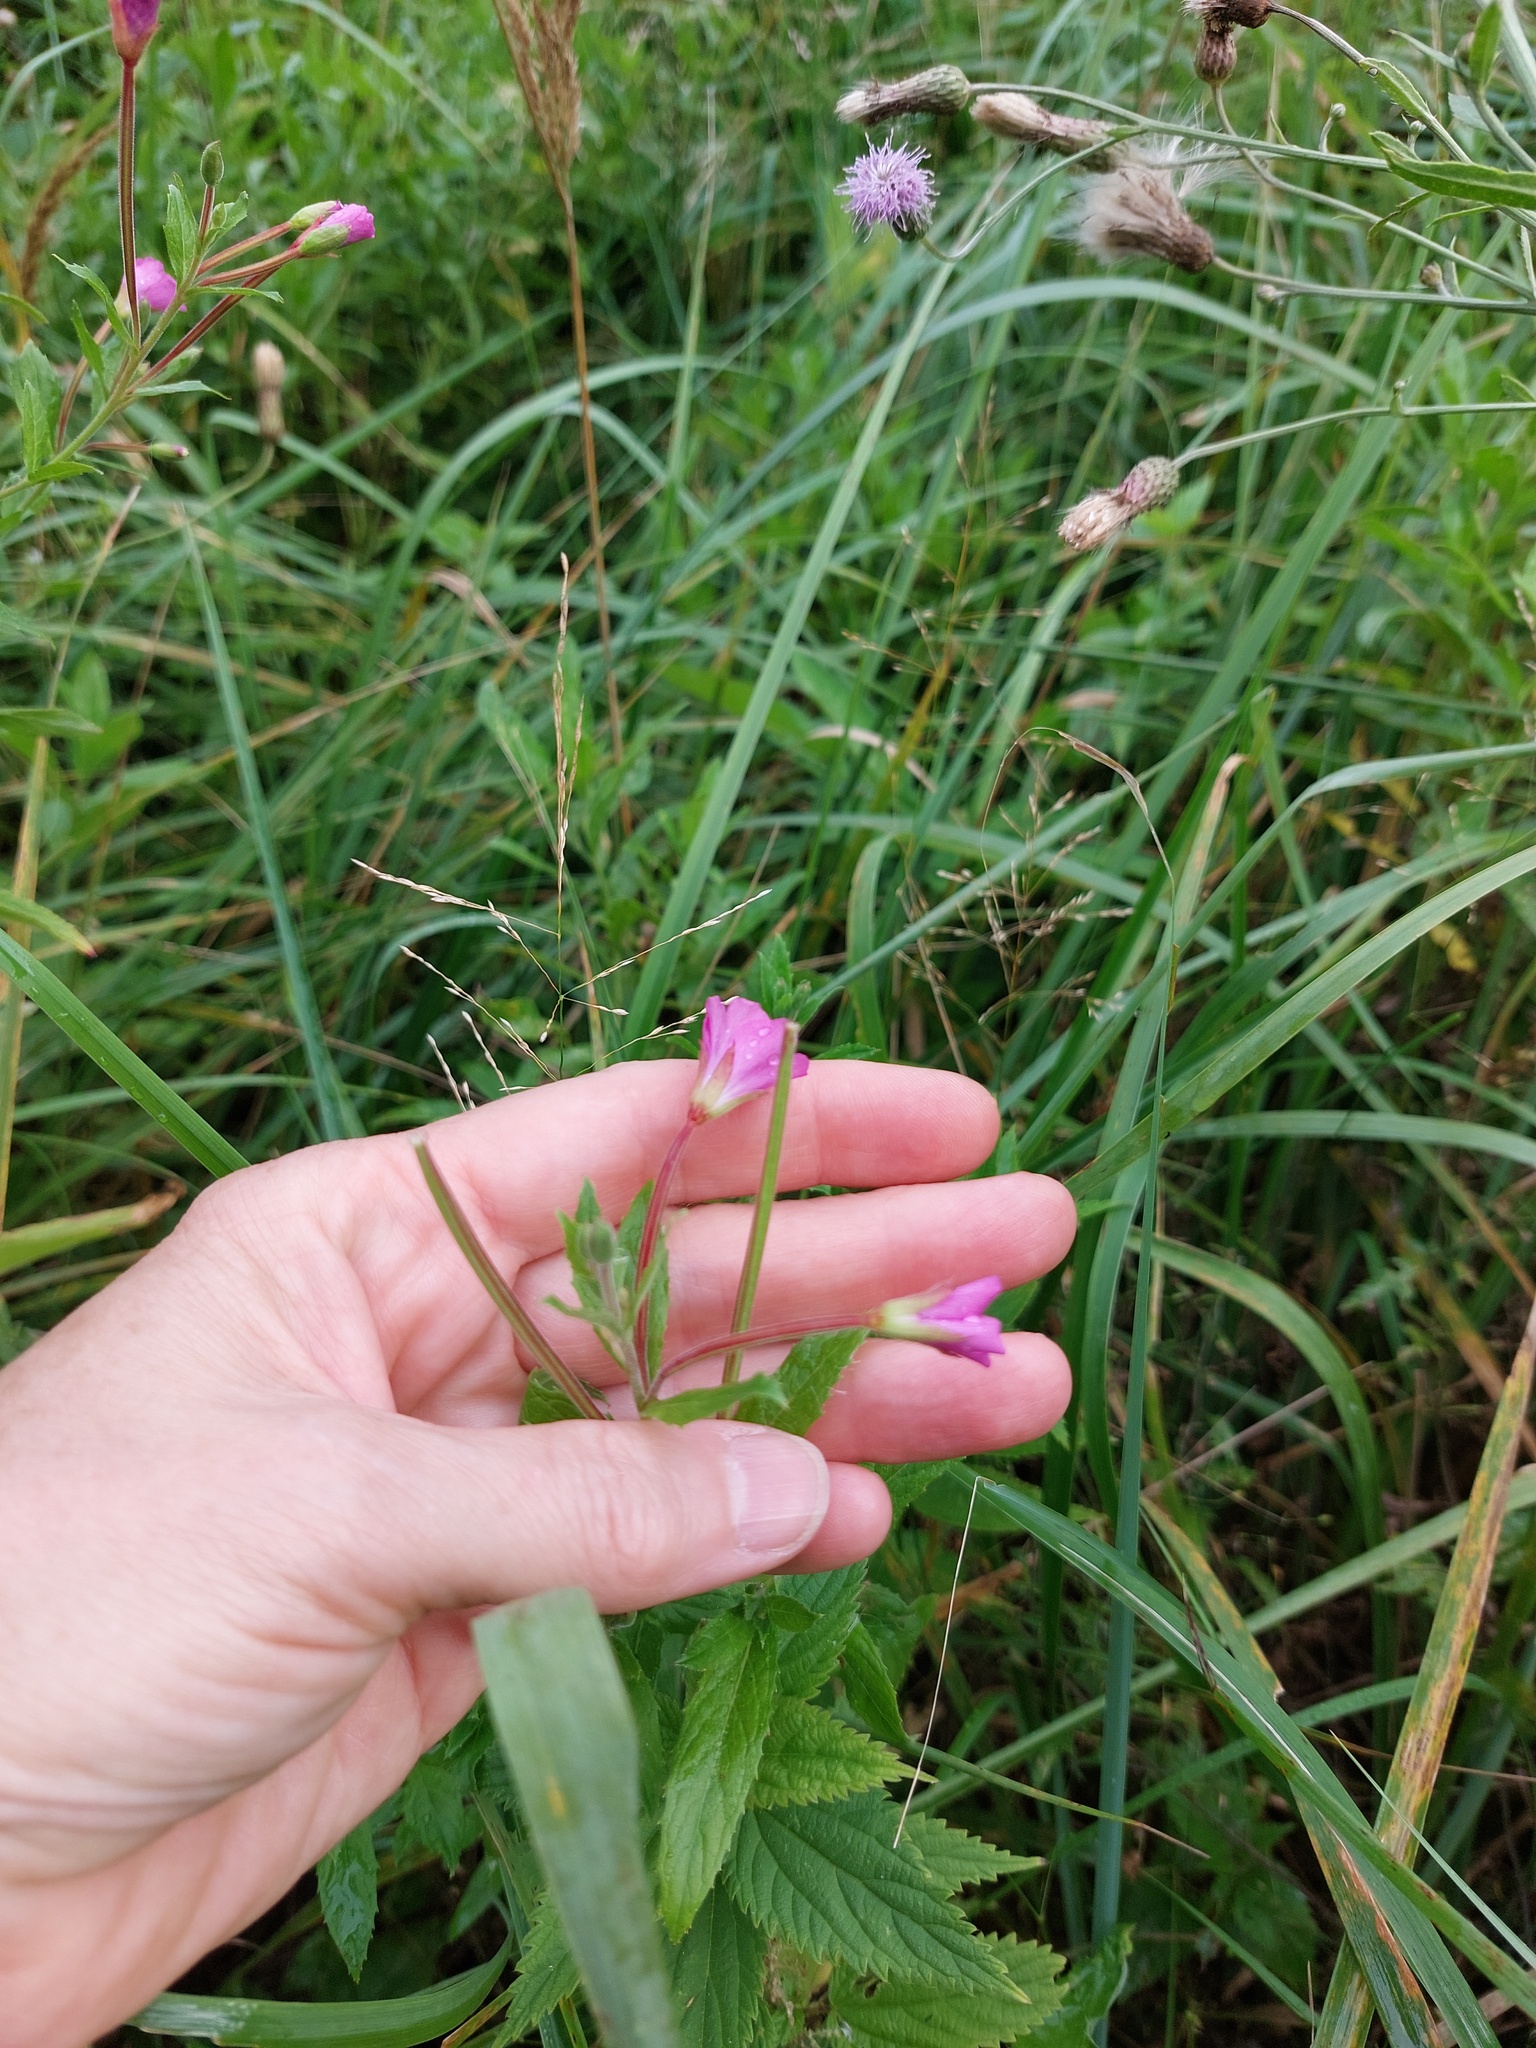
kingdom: Plantae
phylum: Tracheophyta
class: Magnoliopsida
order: Myrtales
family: Onagraceae
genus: Epilobium
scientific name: Epilobium hirsutum
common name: Great willowherb
